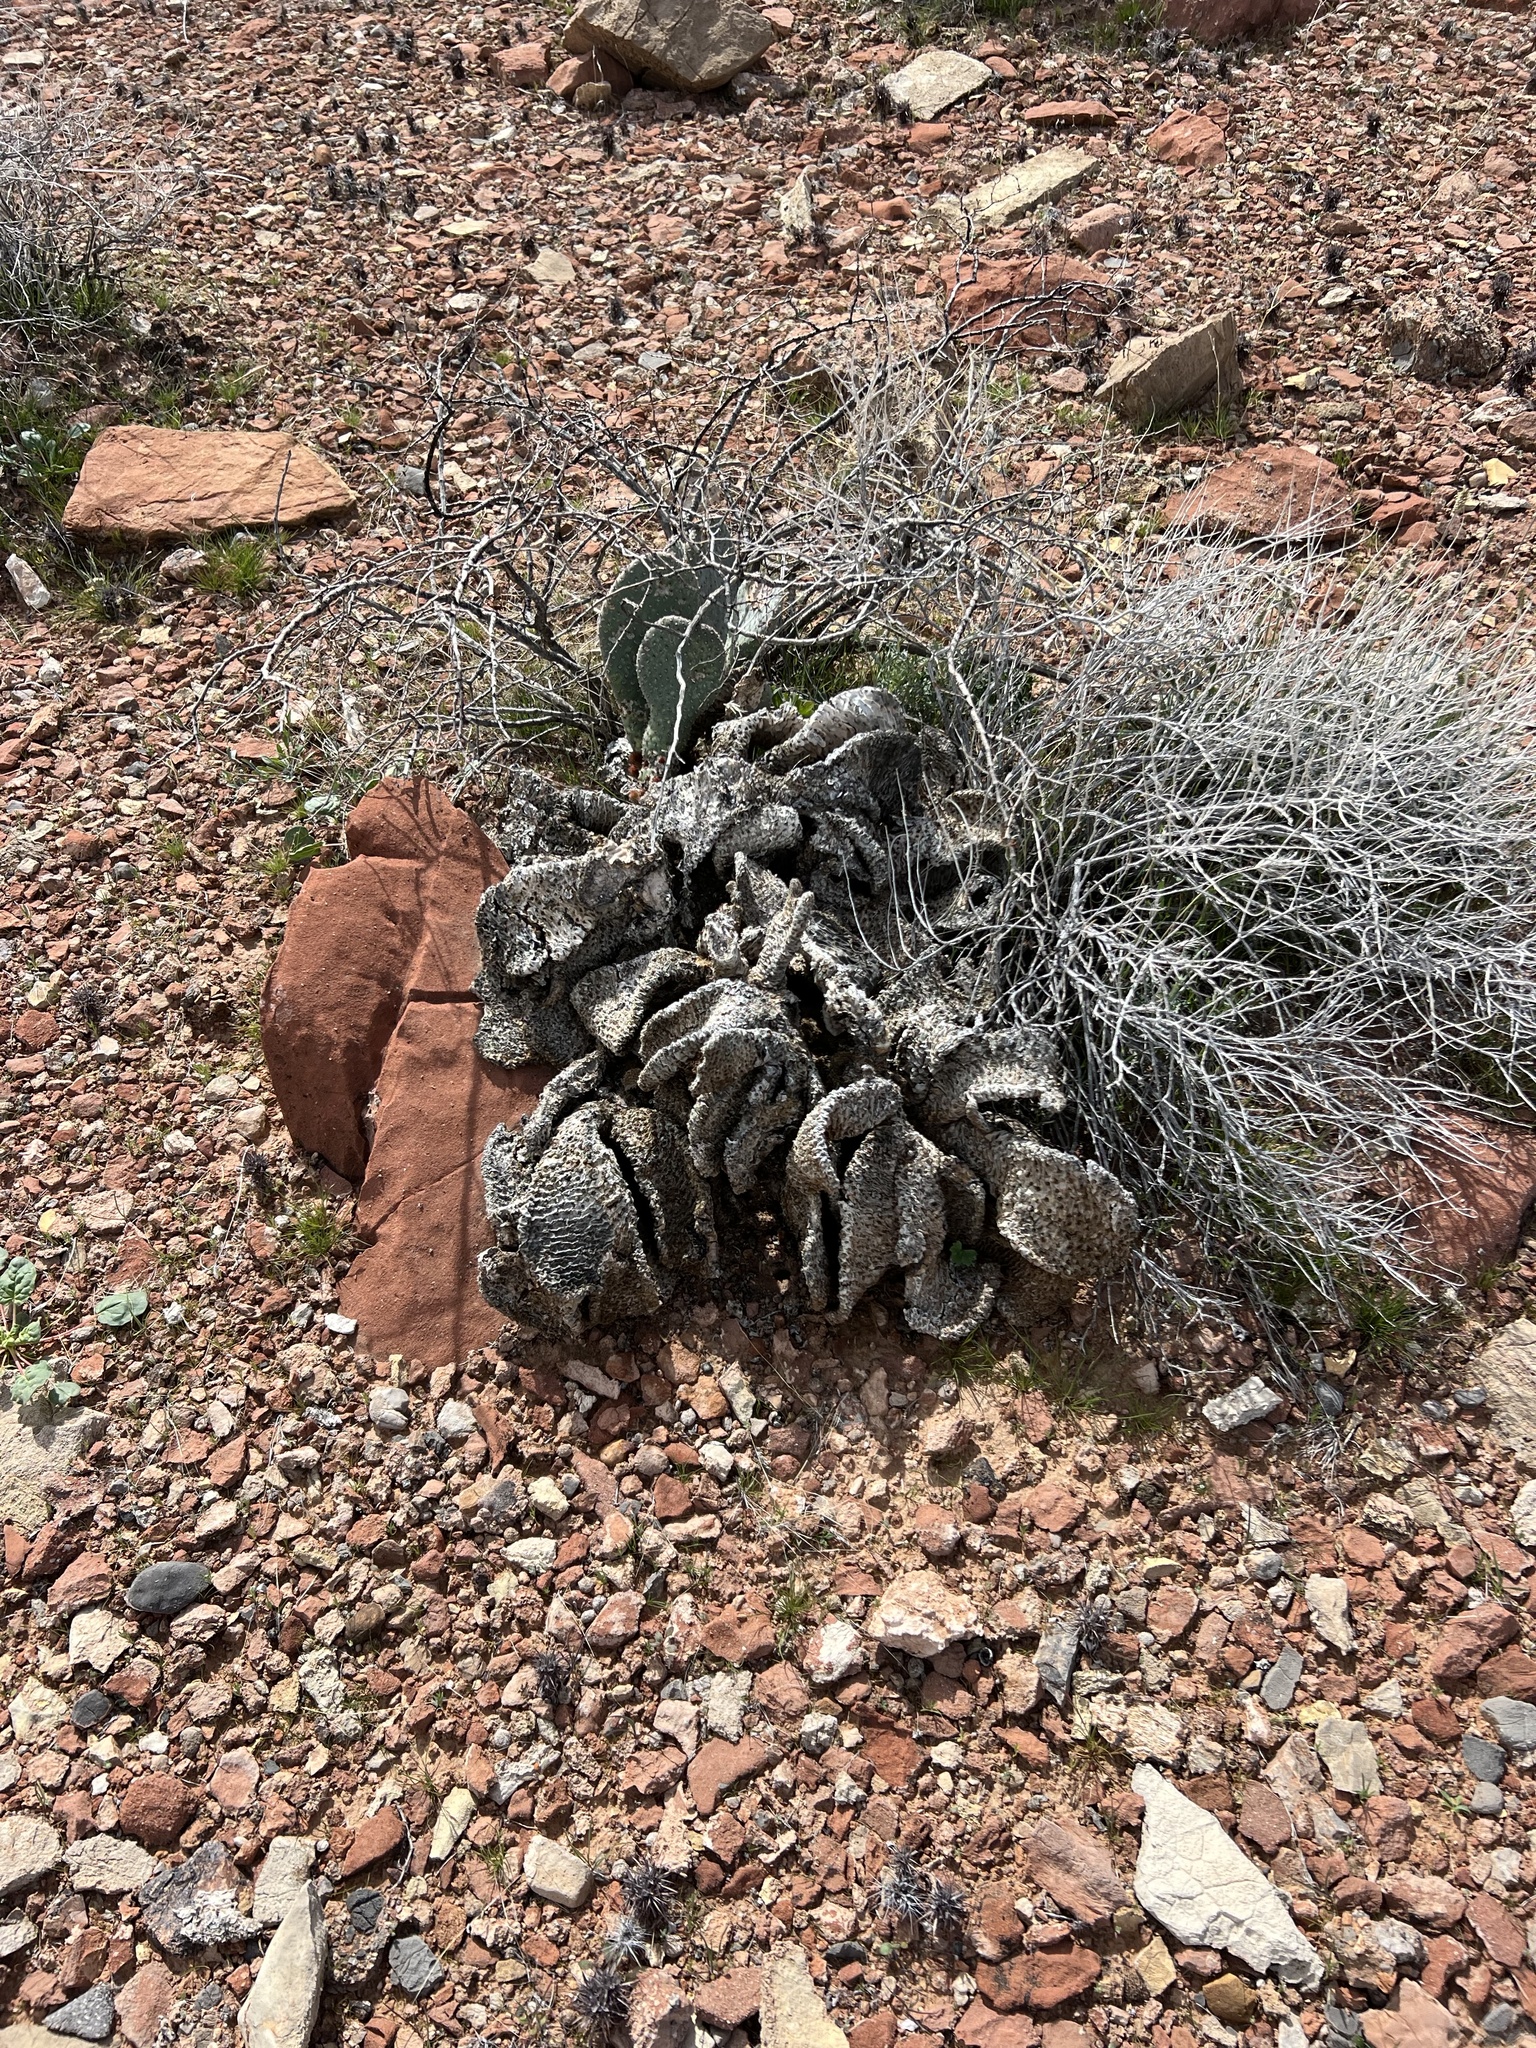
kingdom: Plantae
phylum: Tracheophyta
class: Magnoliopsida
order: Caryophyllales
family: Cactaceae
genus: Opuntia
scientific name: Opuntia basilaris
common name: Beavertail prickly-pear
